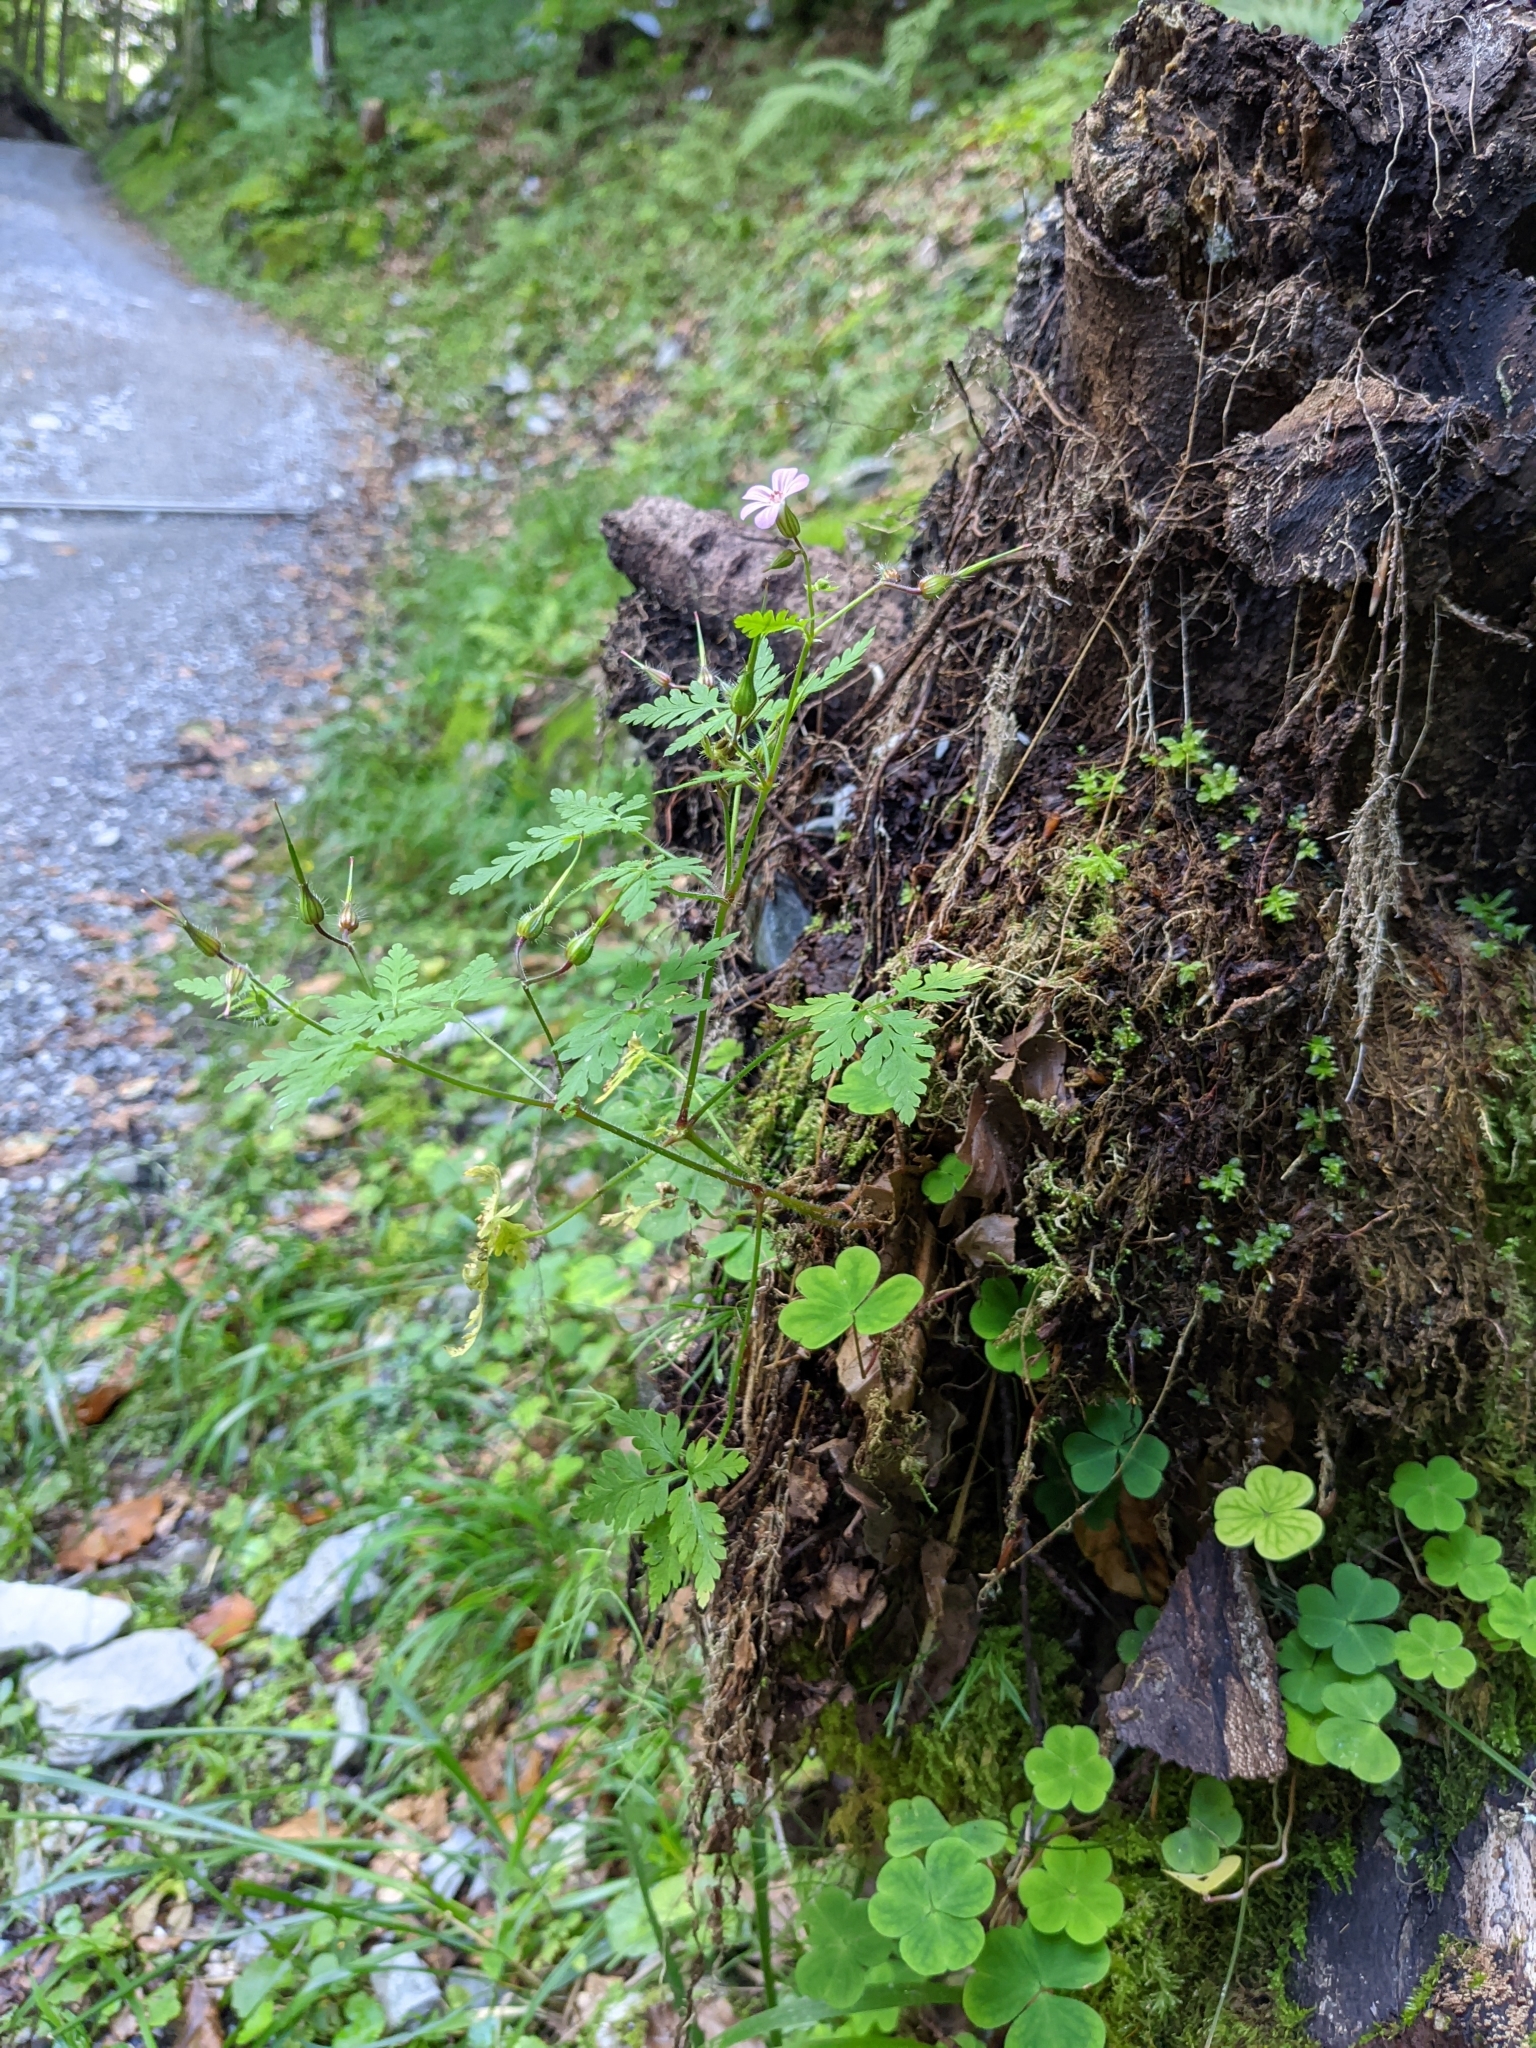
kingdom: Plantae
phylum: Tracheophyta
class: Magnoliopsida
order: Geraniales
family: Geraniaceae
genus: Geranium
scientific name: Geranium robertianum
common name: Herb-robert
